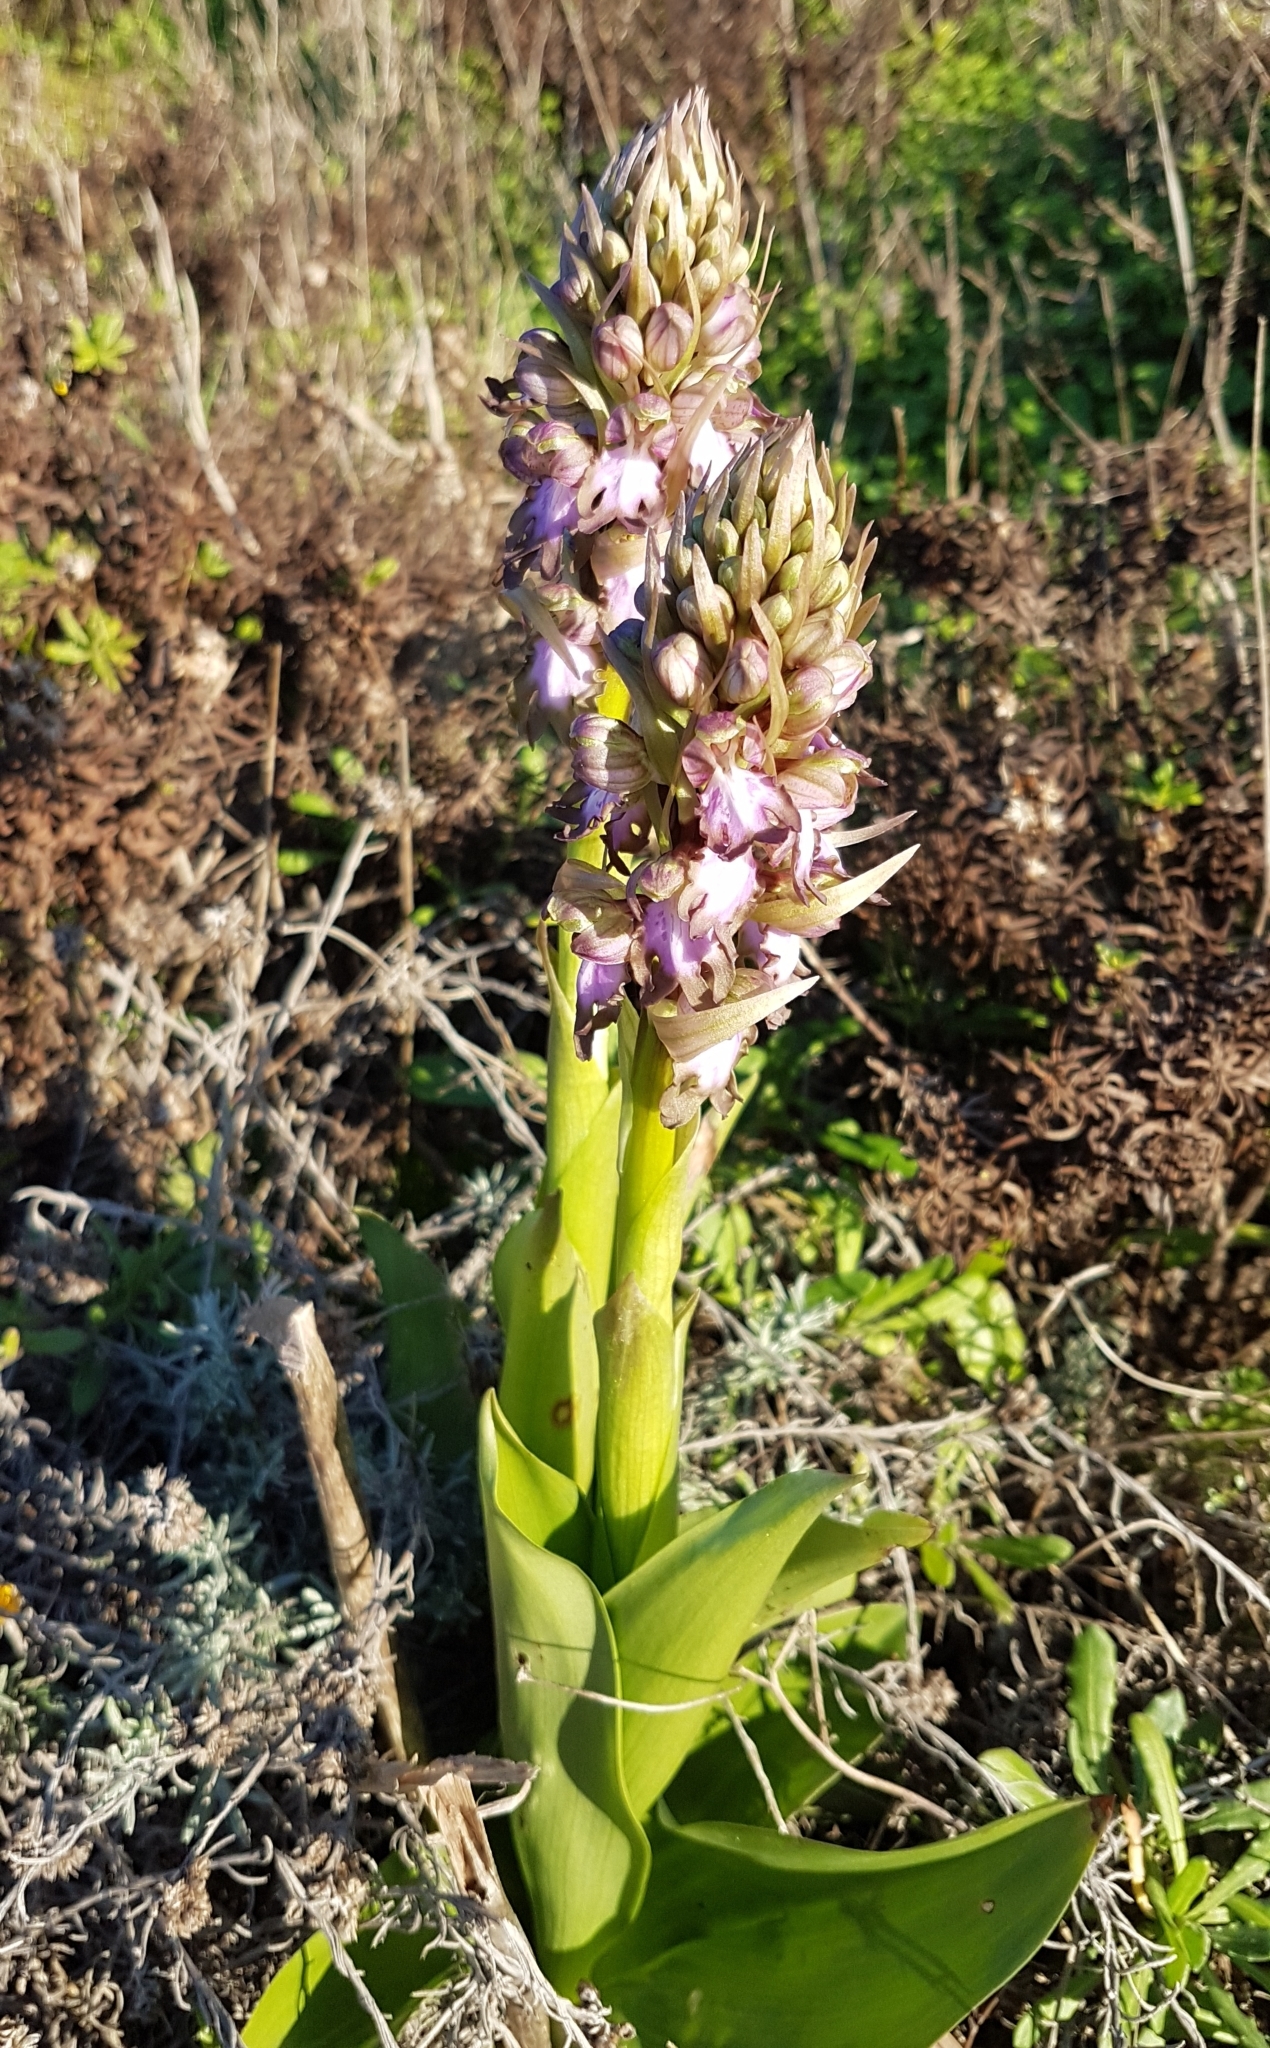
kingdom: Plantae
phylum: Tracheophyta
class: Liliopsida
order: Asparagales
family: Orchidaceae
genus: Himantoglossum
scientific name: Himantoglossum robertianum
